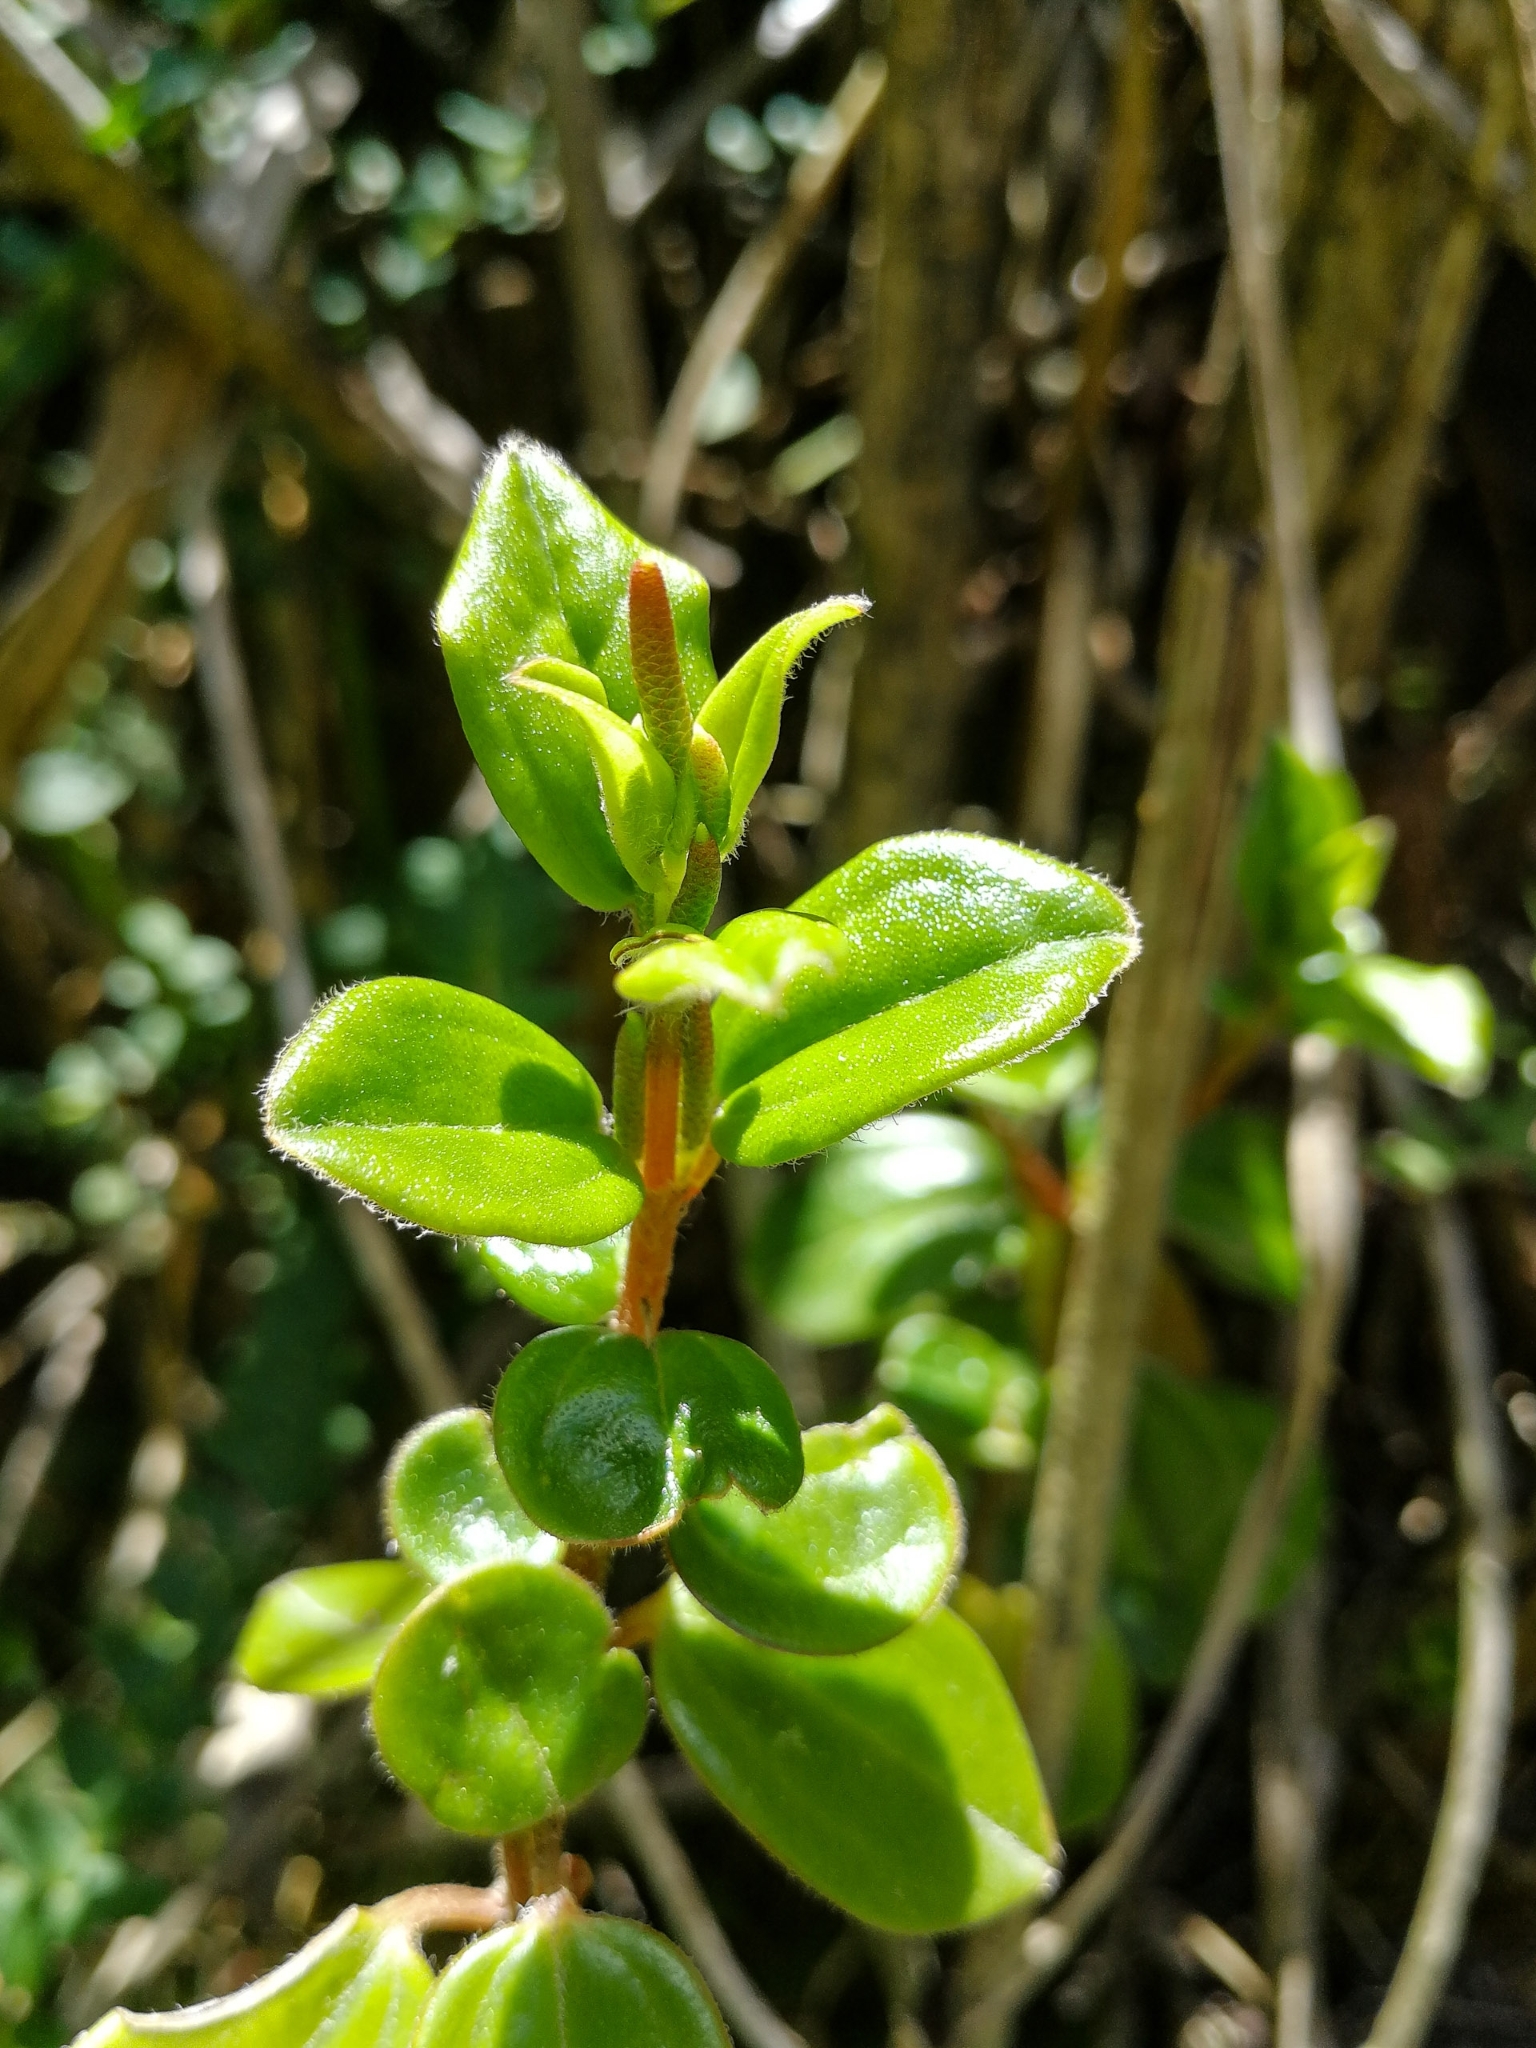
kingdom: Plantae
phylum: Tracheophyta
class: Magnoliopsida
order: Piperales
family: Piperaceae
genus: Peperomia
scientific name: Peperomia rotundata
